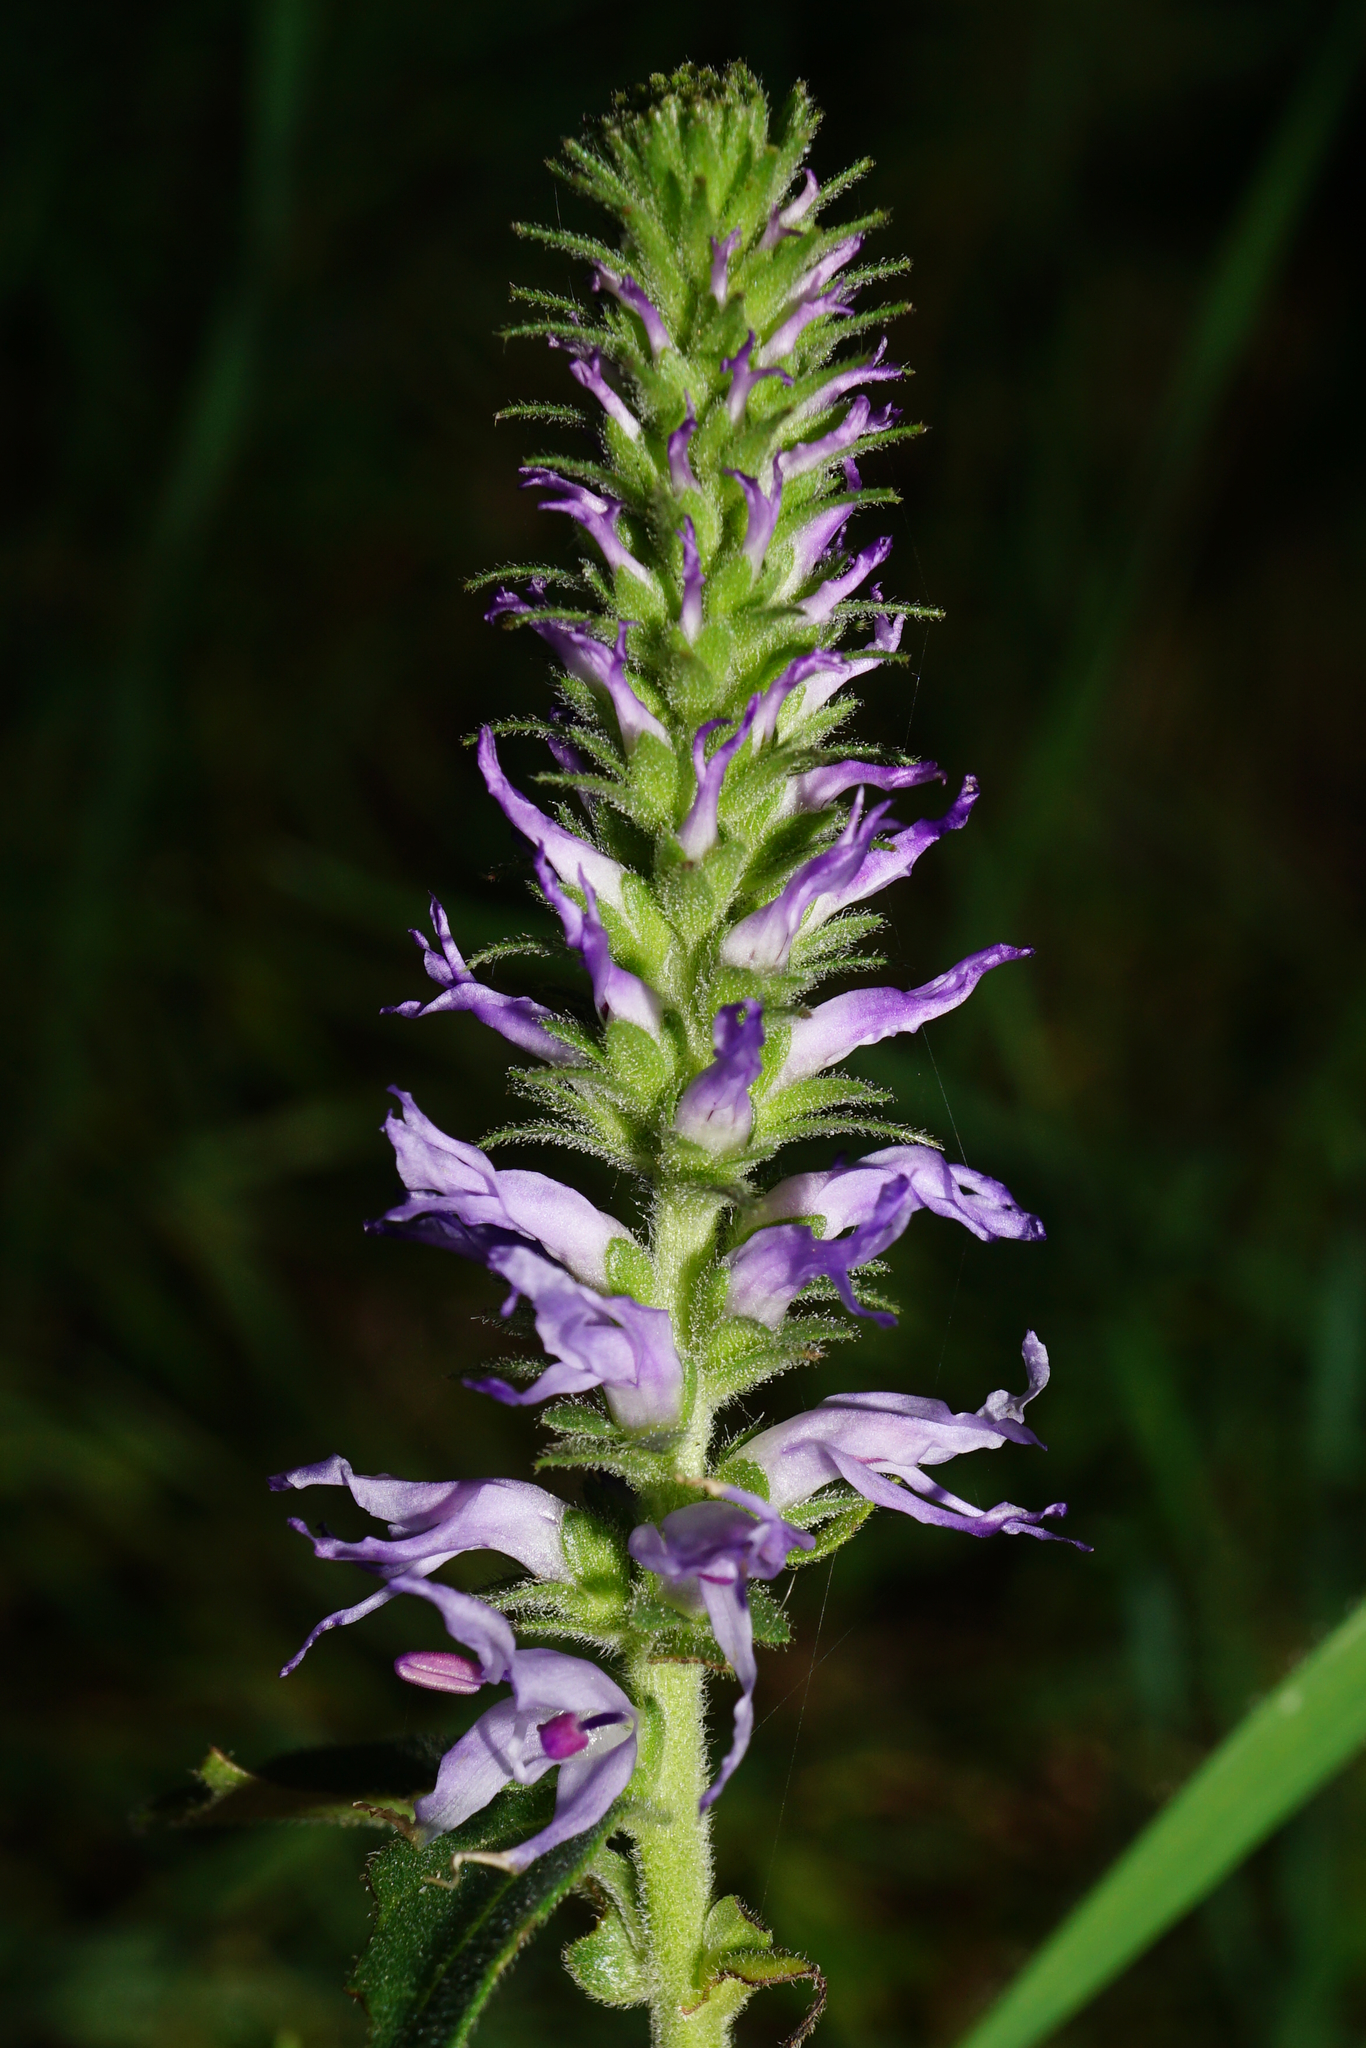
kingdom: Plantae
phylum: Tracheophyta
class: Magnoliopsida
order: Lamiales
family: Plantaginaceae
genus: Veronica
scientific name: Veronica orchidea
